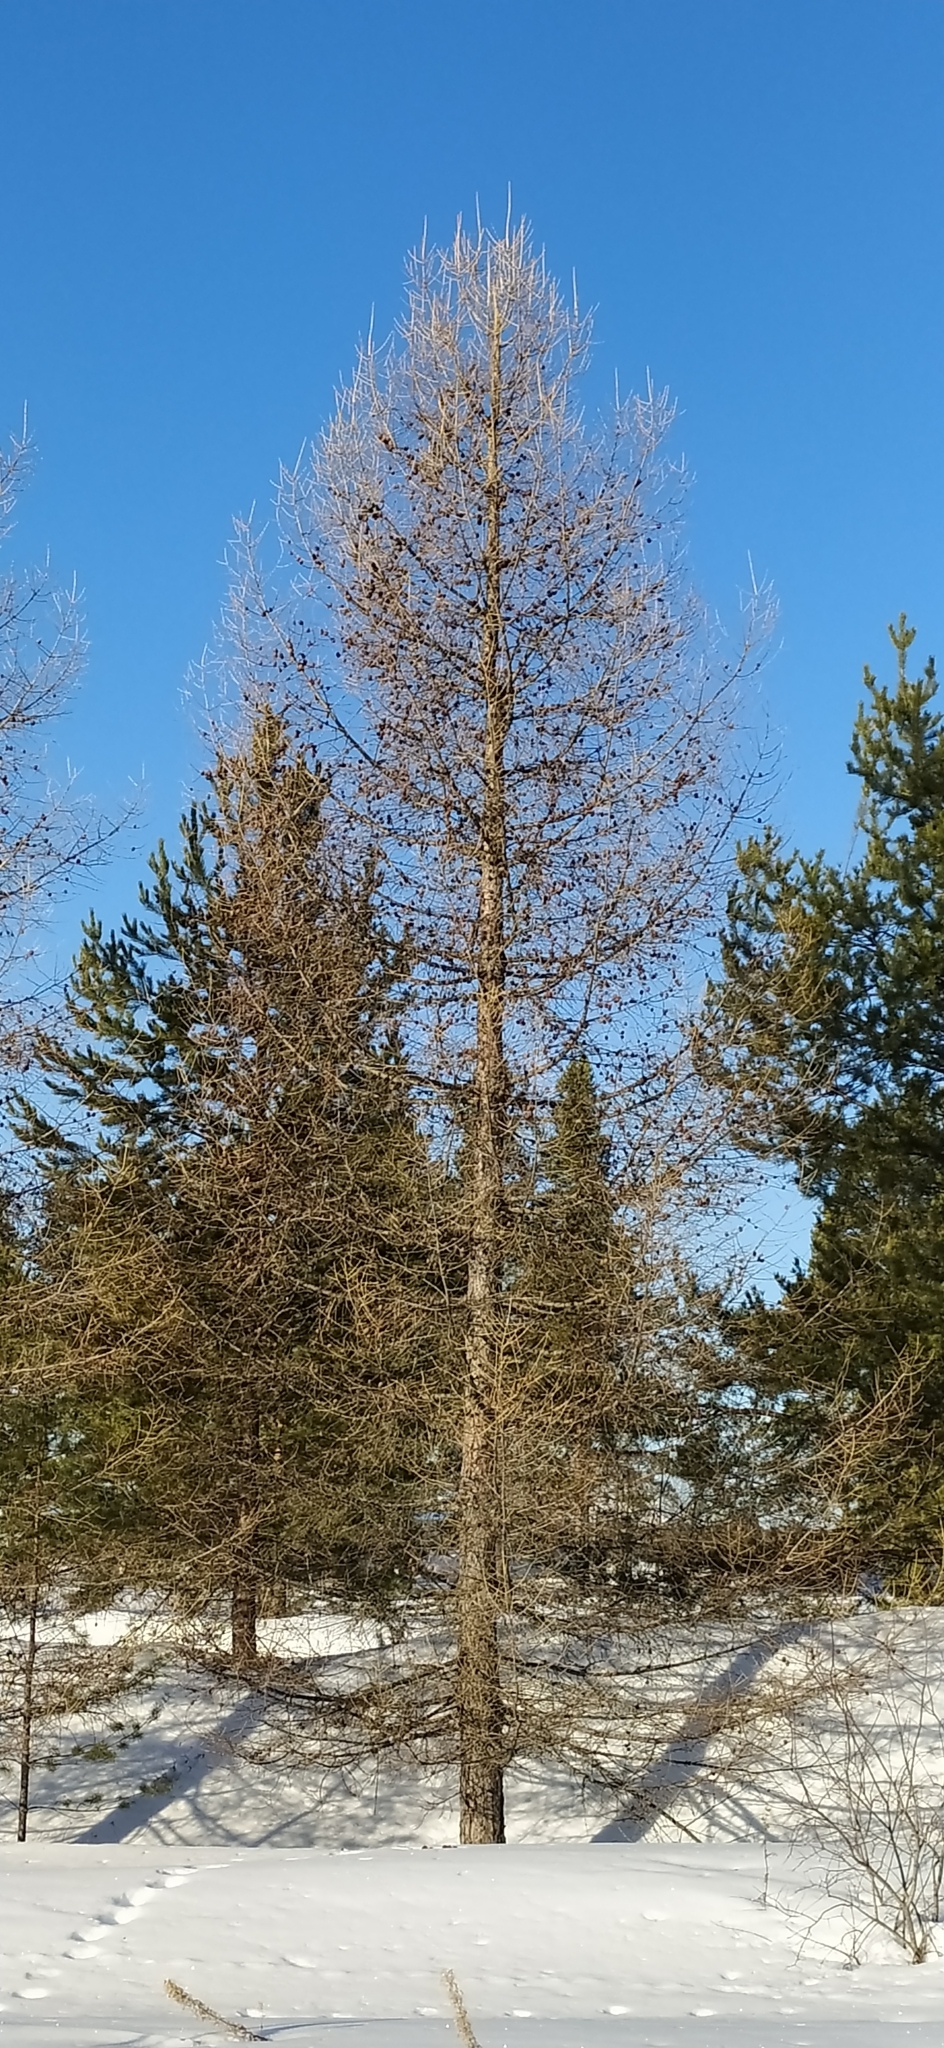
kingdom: Plantae
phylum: Tracheophyta
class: Pinopsida
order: Pinales
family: Pinaceae
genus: Larix
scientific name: Larix sibirica
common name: Siberian larch
